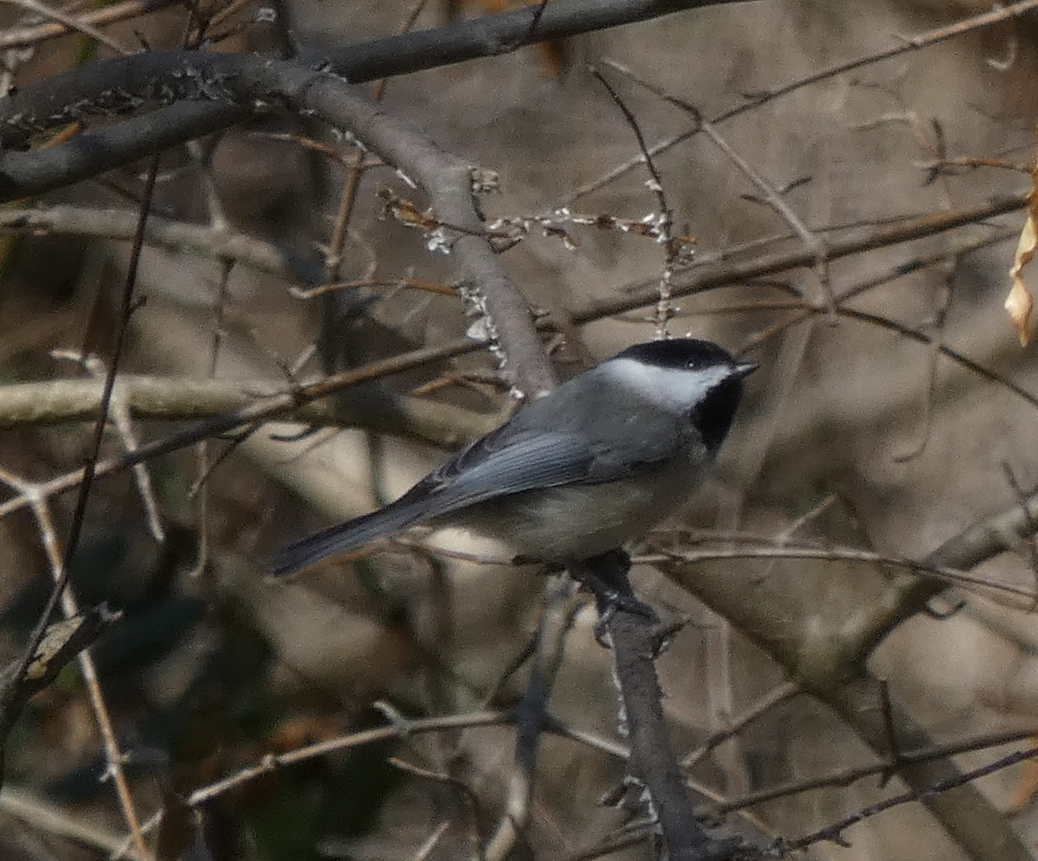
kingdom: Animalia
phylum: Chordata
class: Aves
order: Passeriformes
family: Paridae
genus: Poecile
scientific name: Poecile carolinensis
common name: Carolina chickadee
